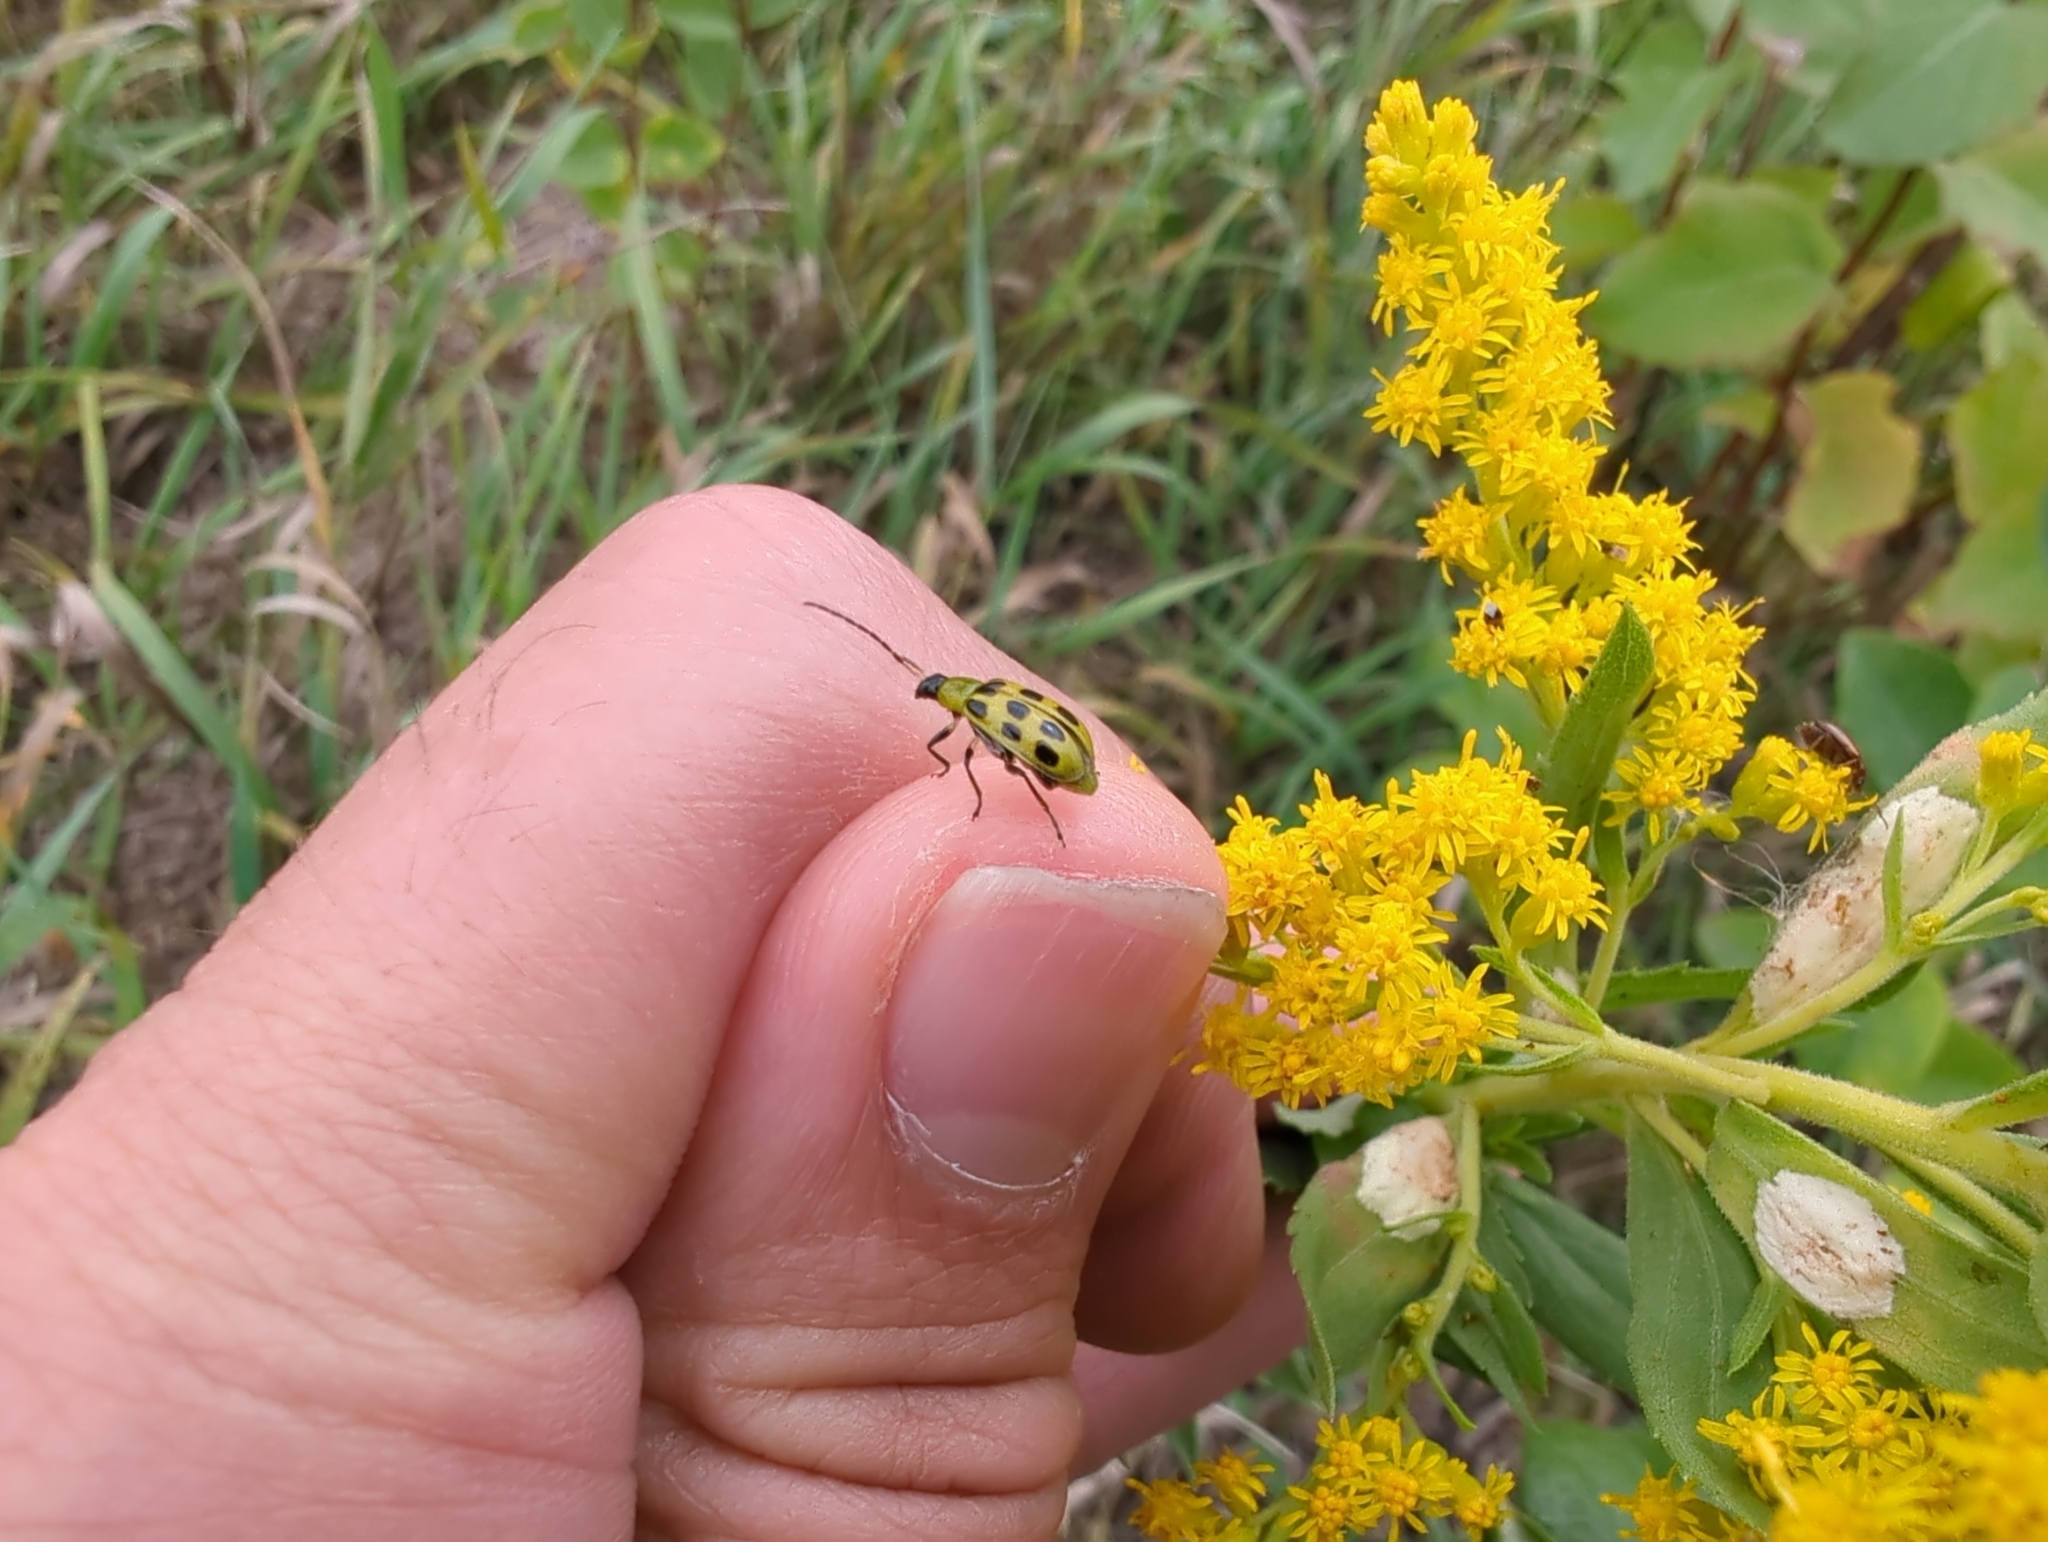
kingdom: Animalia
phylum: Arthropoda
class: Insecta
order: Coleoptera
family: Chrysomelidae
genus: Diabrotica
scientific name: Diabrotica undecimpunctata
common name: Spotted cucumber beetle
